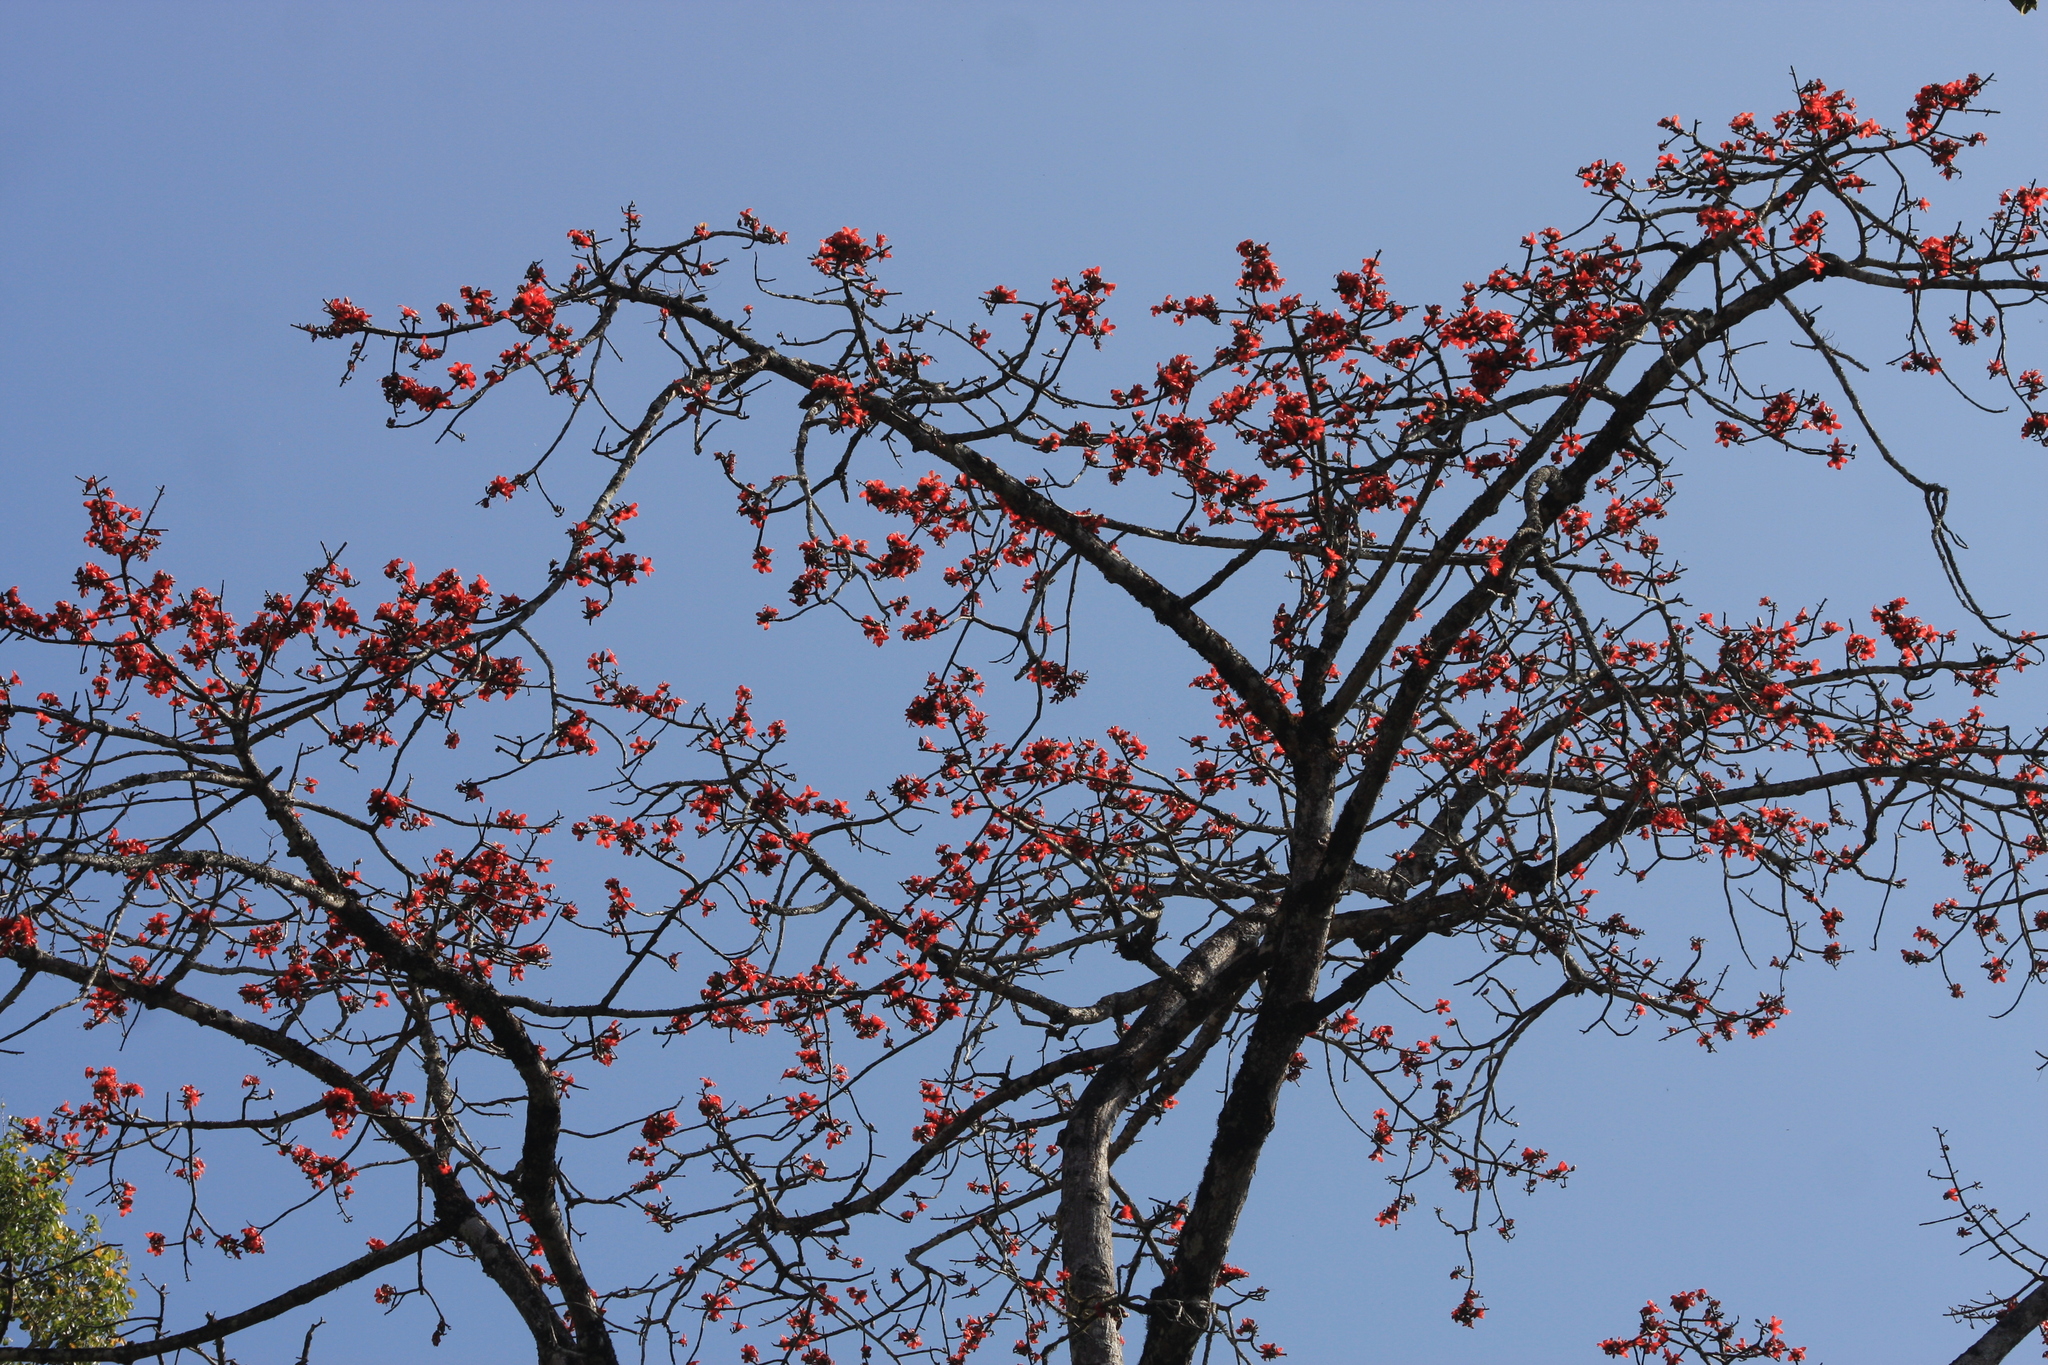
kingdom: Plantae
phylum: Tracheophyta
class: Magnoliopsida
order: Malvales
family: Malvaceae
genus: Bombax
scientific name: Bombax ceiba
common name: Northern-cottonwood
